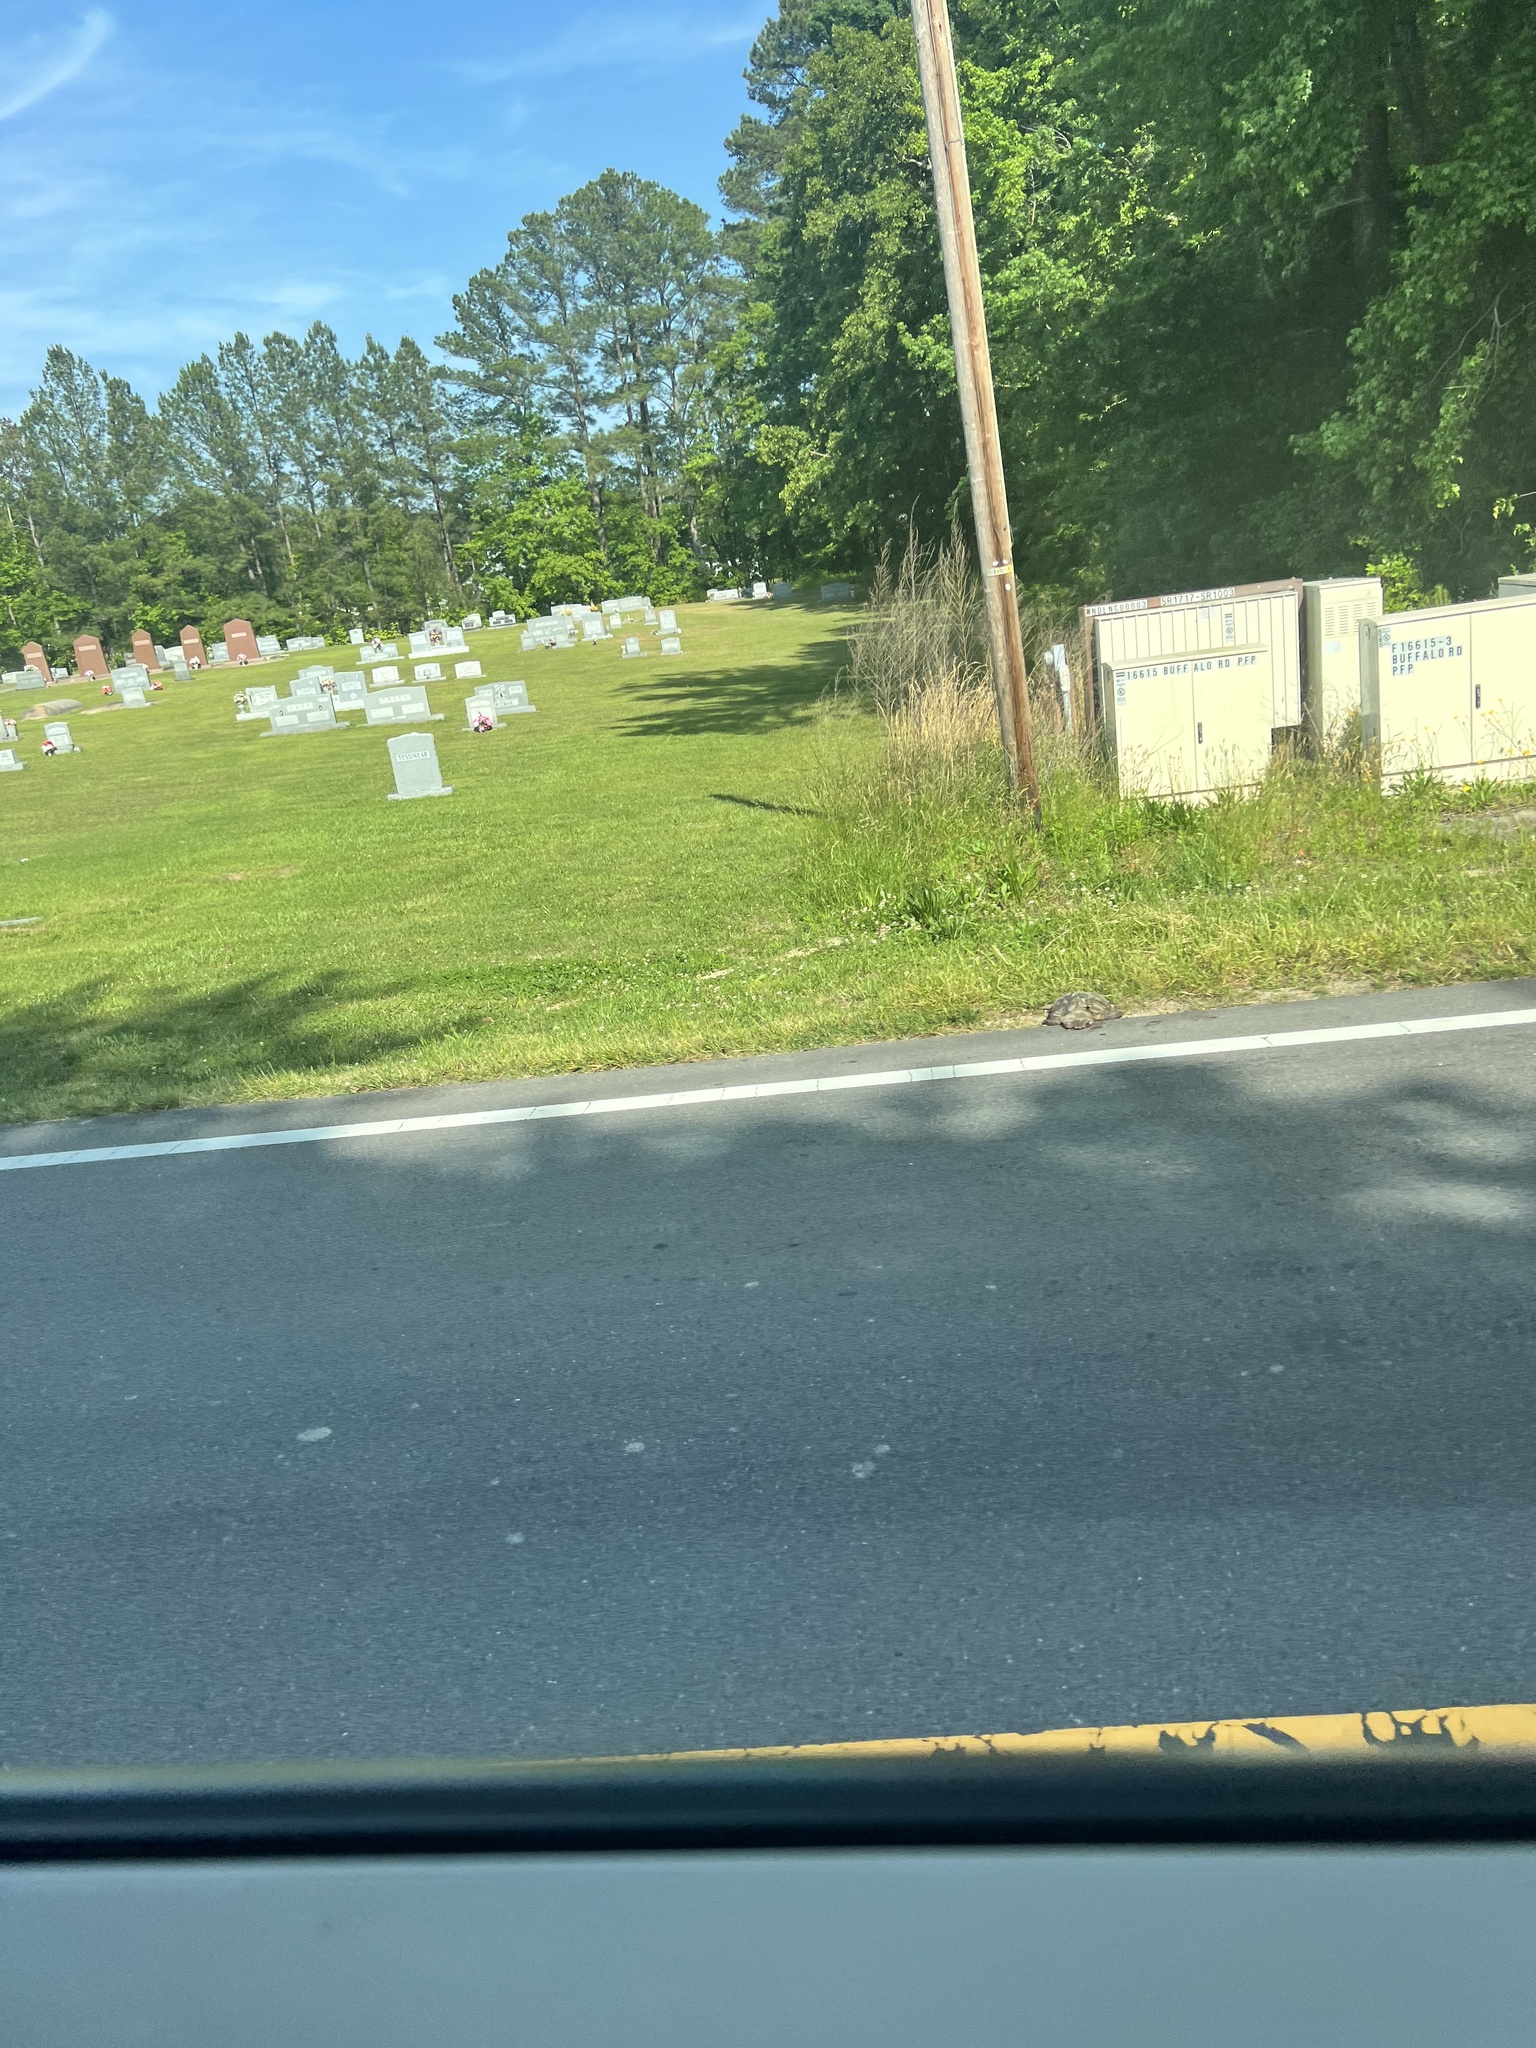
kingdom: Animalia
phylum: Chordata
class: Testudines
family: Chelydridae
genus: Chelydra
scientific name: Chelydra serpentina
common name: Common snapping turtle
